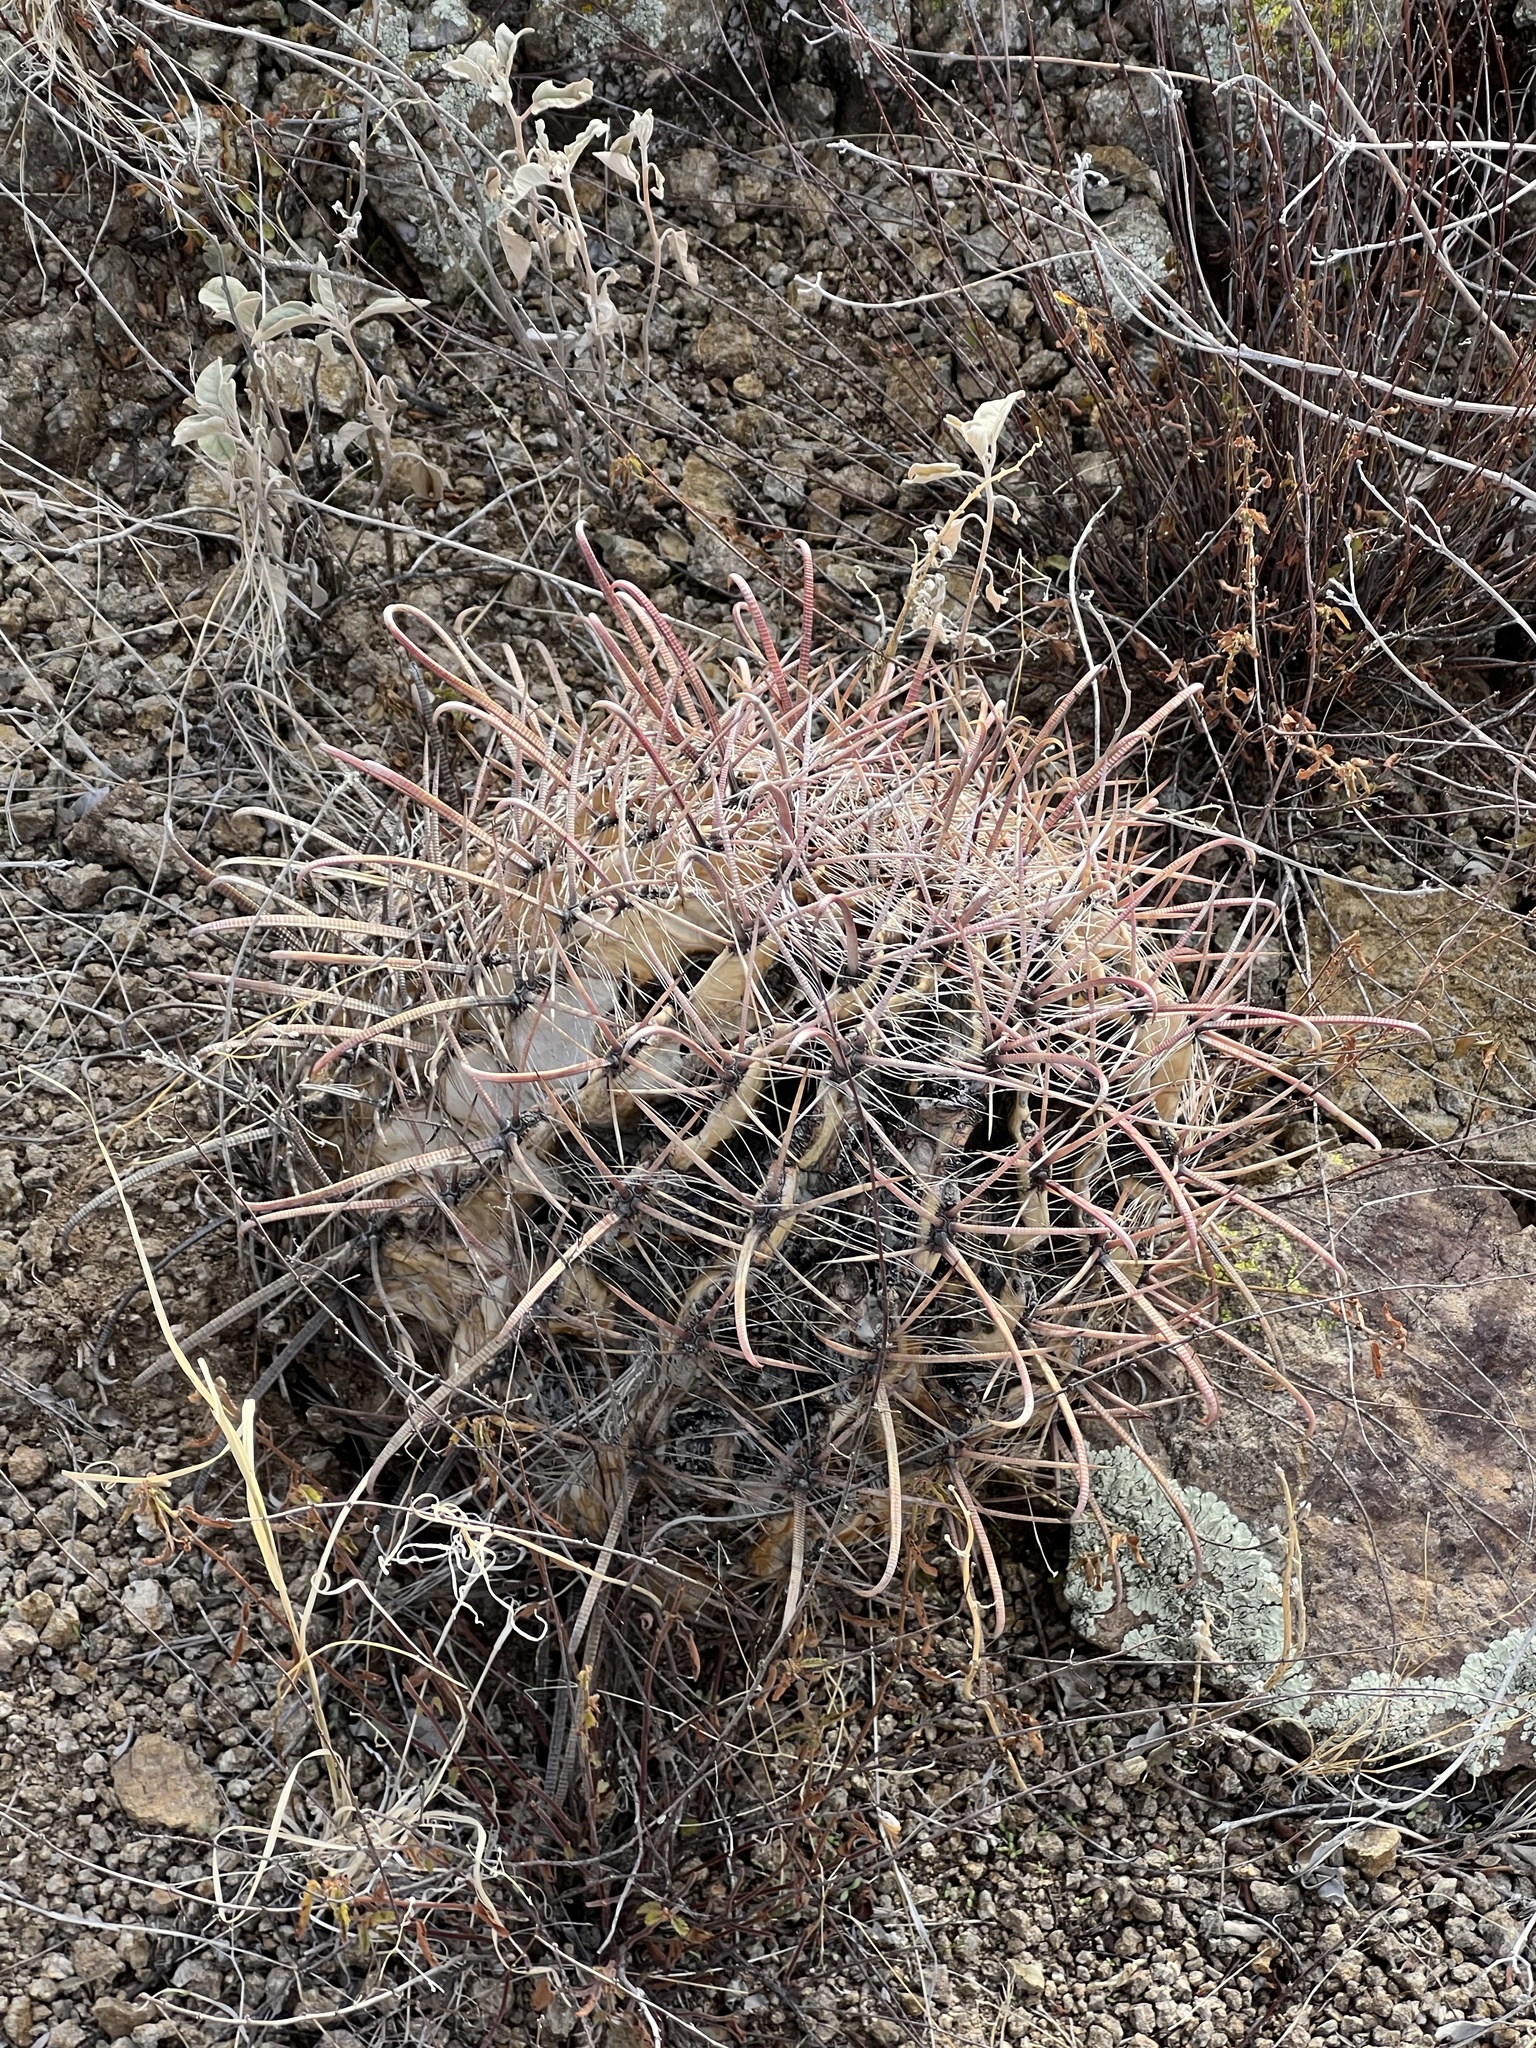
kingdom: Plantae
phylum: Tracheophyta
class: Magnoliopsida
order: Caryophyllales
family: Cactaceae
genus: Ferocactus
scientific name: Ferocactus wislizeni
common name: Candy barrel cactus
